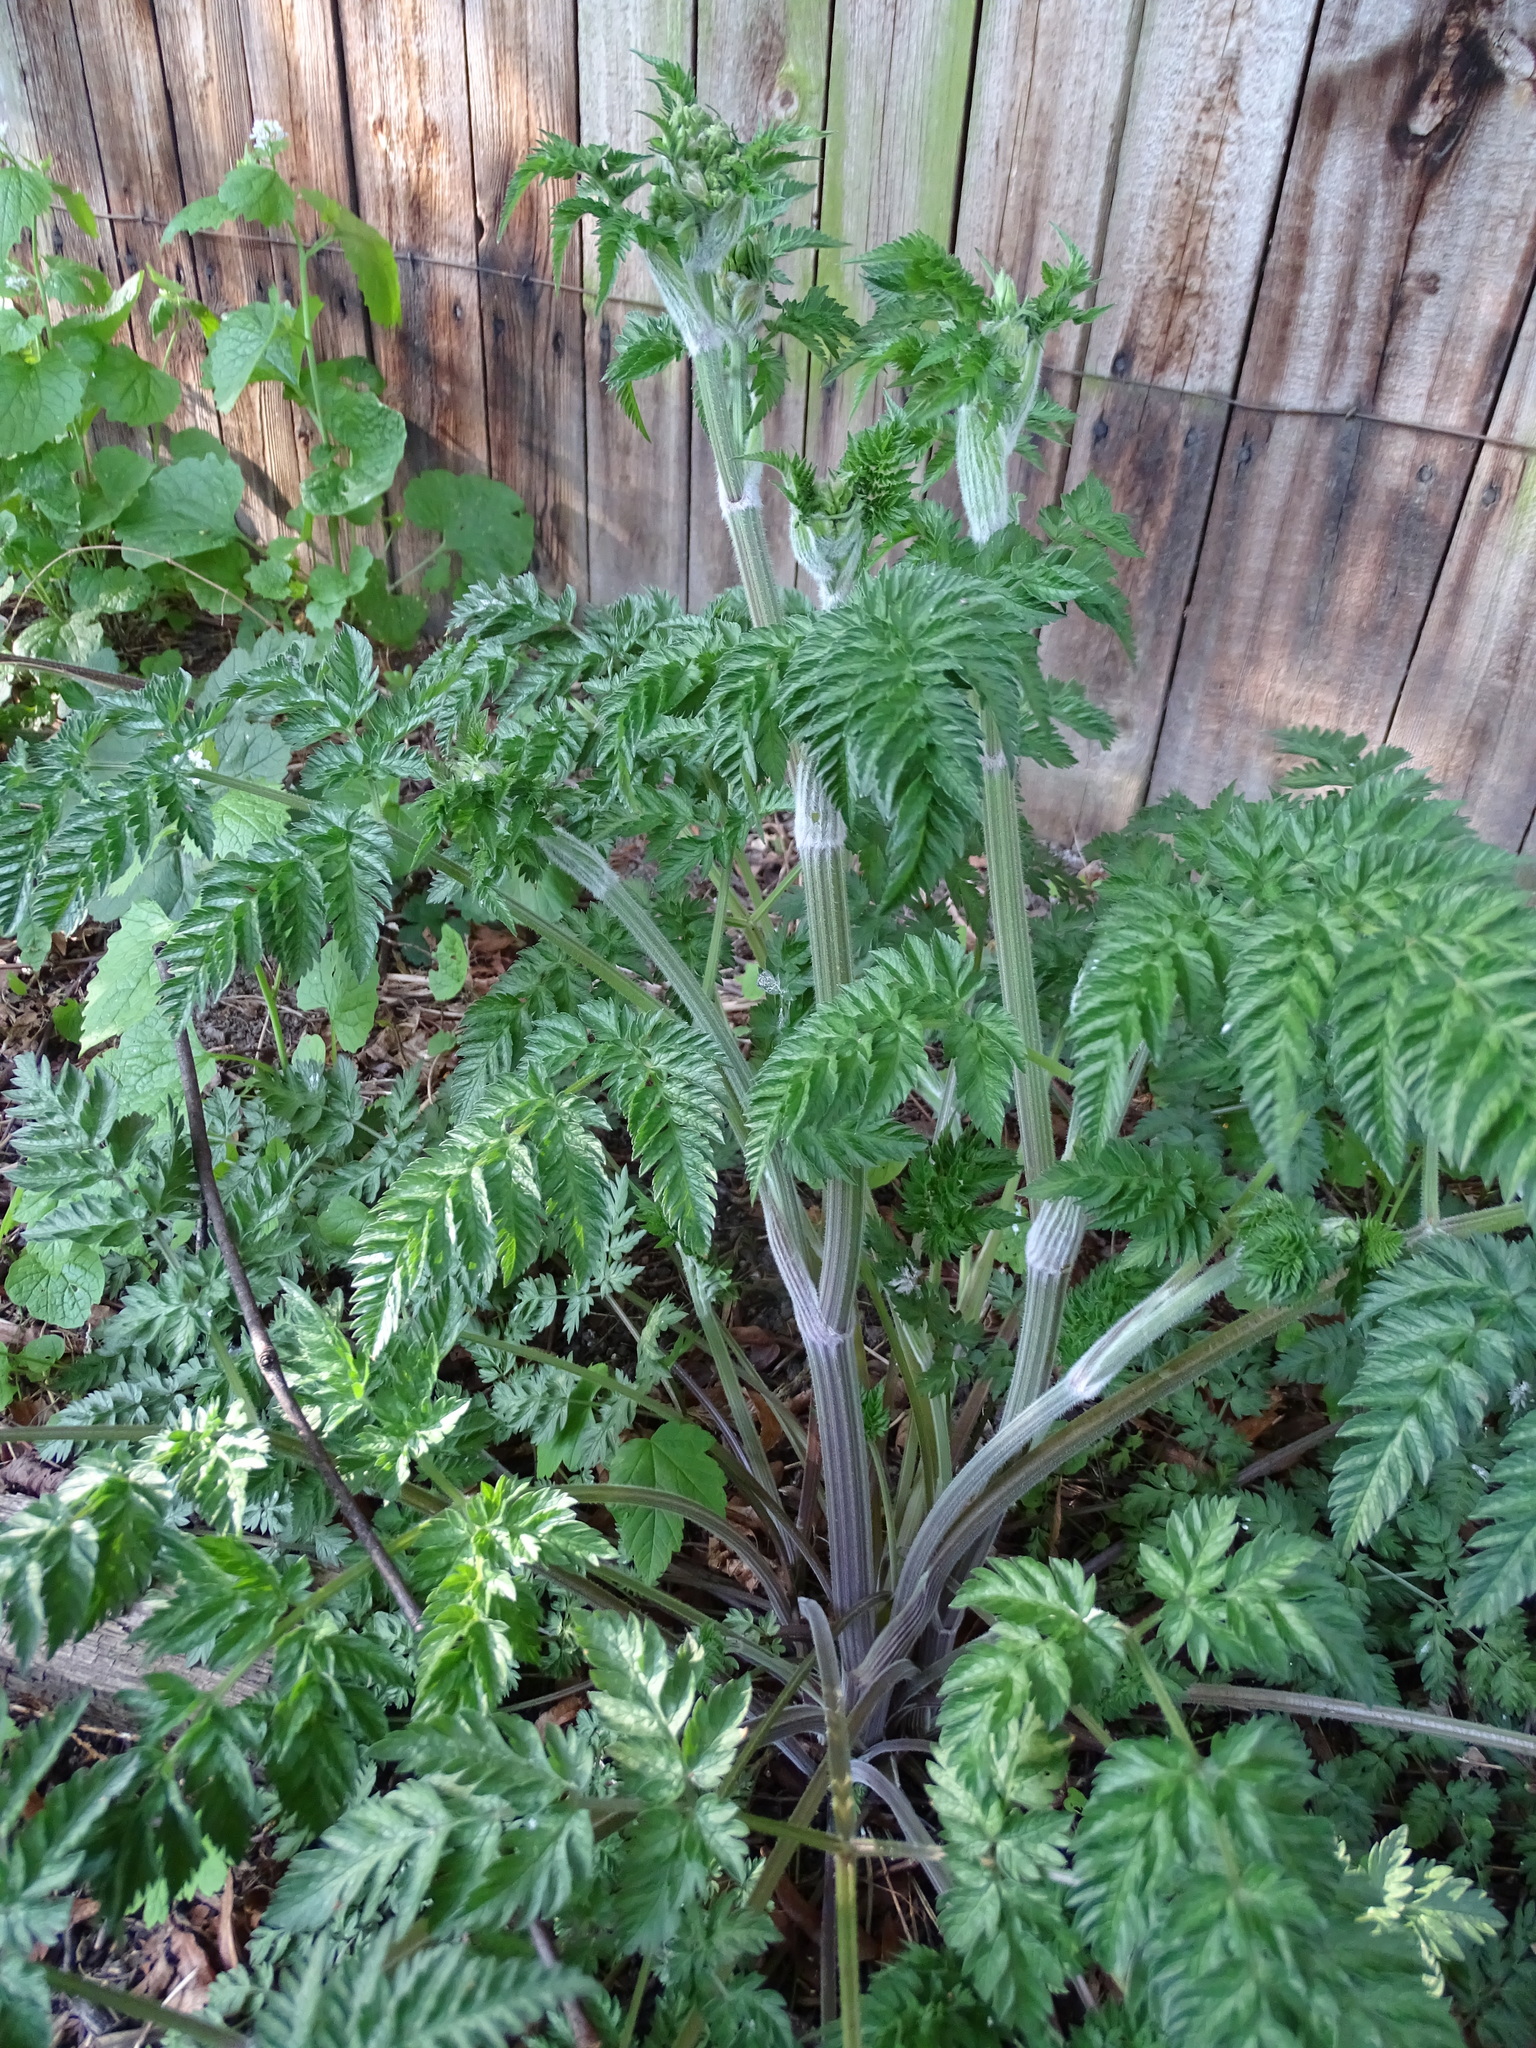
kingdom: Plantae
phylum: Tracheophyta
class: Magnoliopsida
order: Apiales
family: Apiaceae
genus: Anthriscus
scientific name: Anthriscus sylvestris
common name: Cow parsley
